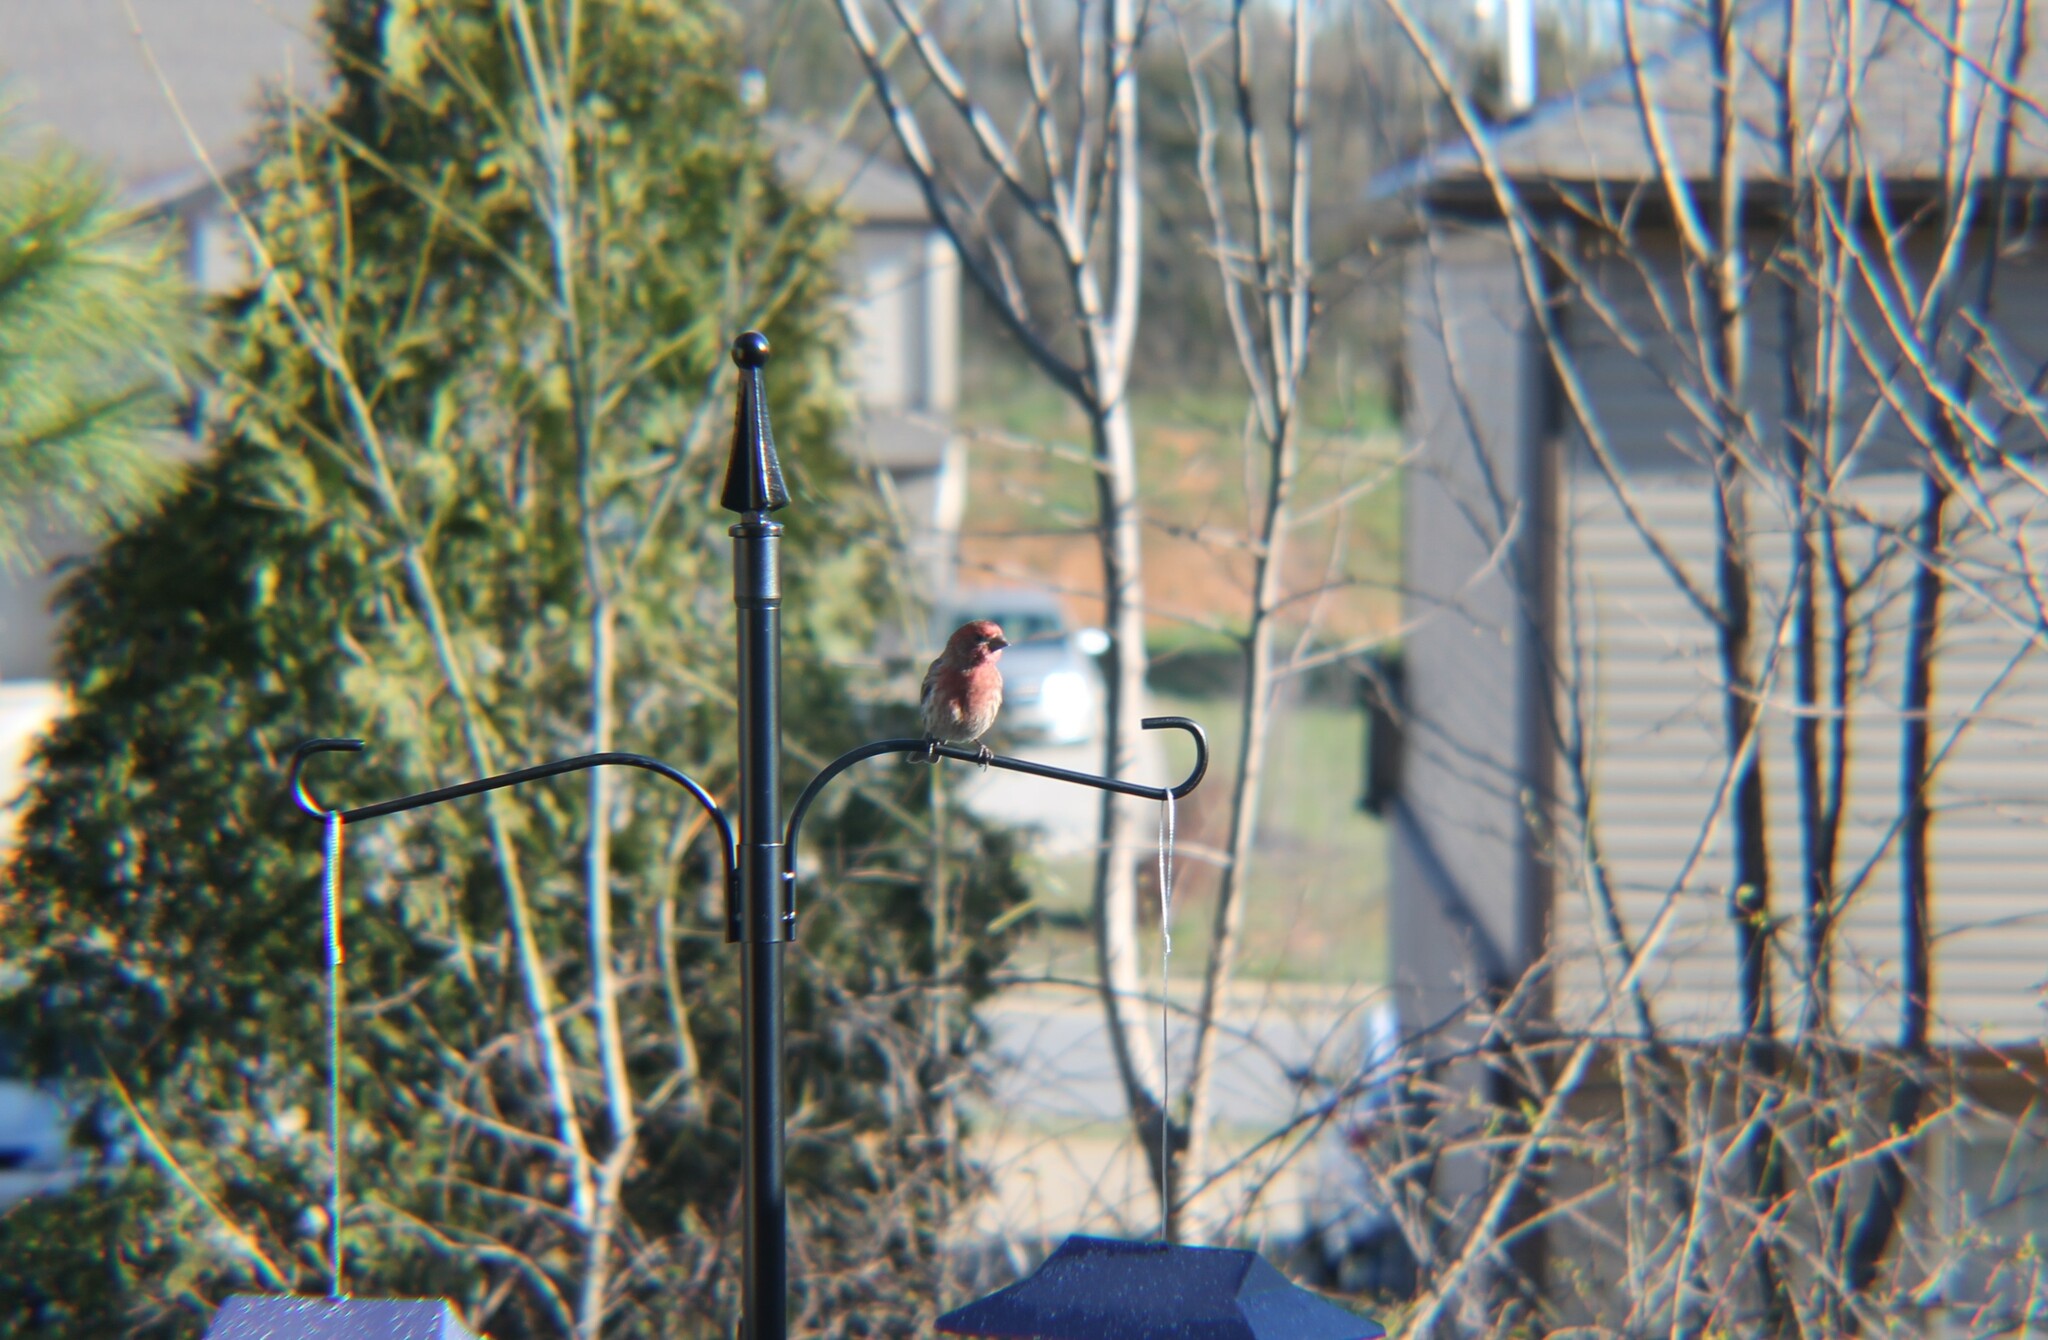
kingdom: Animalia
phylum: Chordata
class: Aves
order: Passeriformes
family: Fringillidae
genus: Haemorhous
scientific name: Haemorhous mexicanus
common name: House finch
